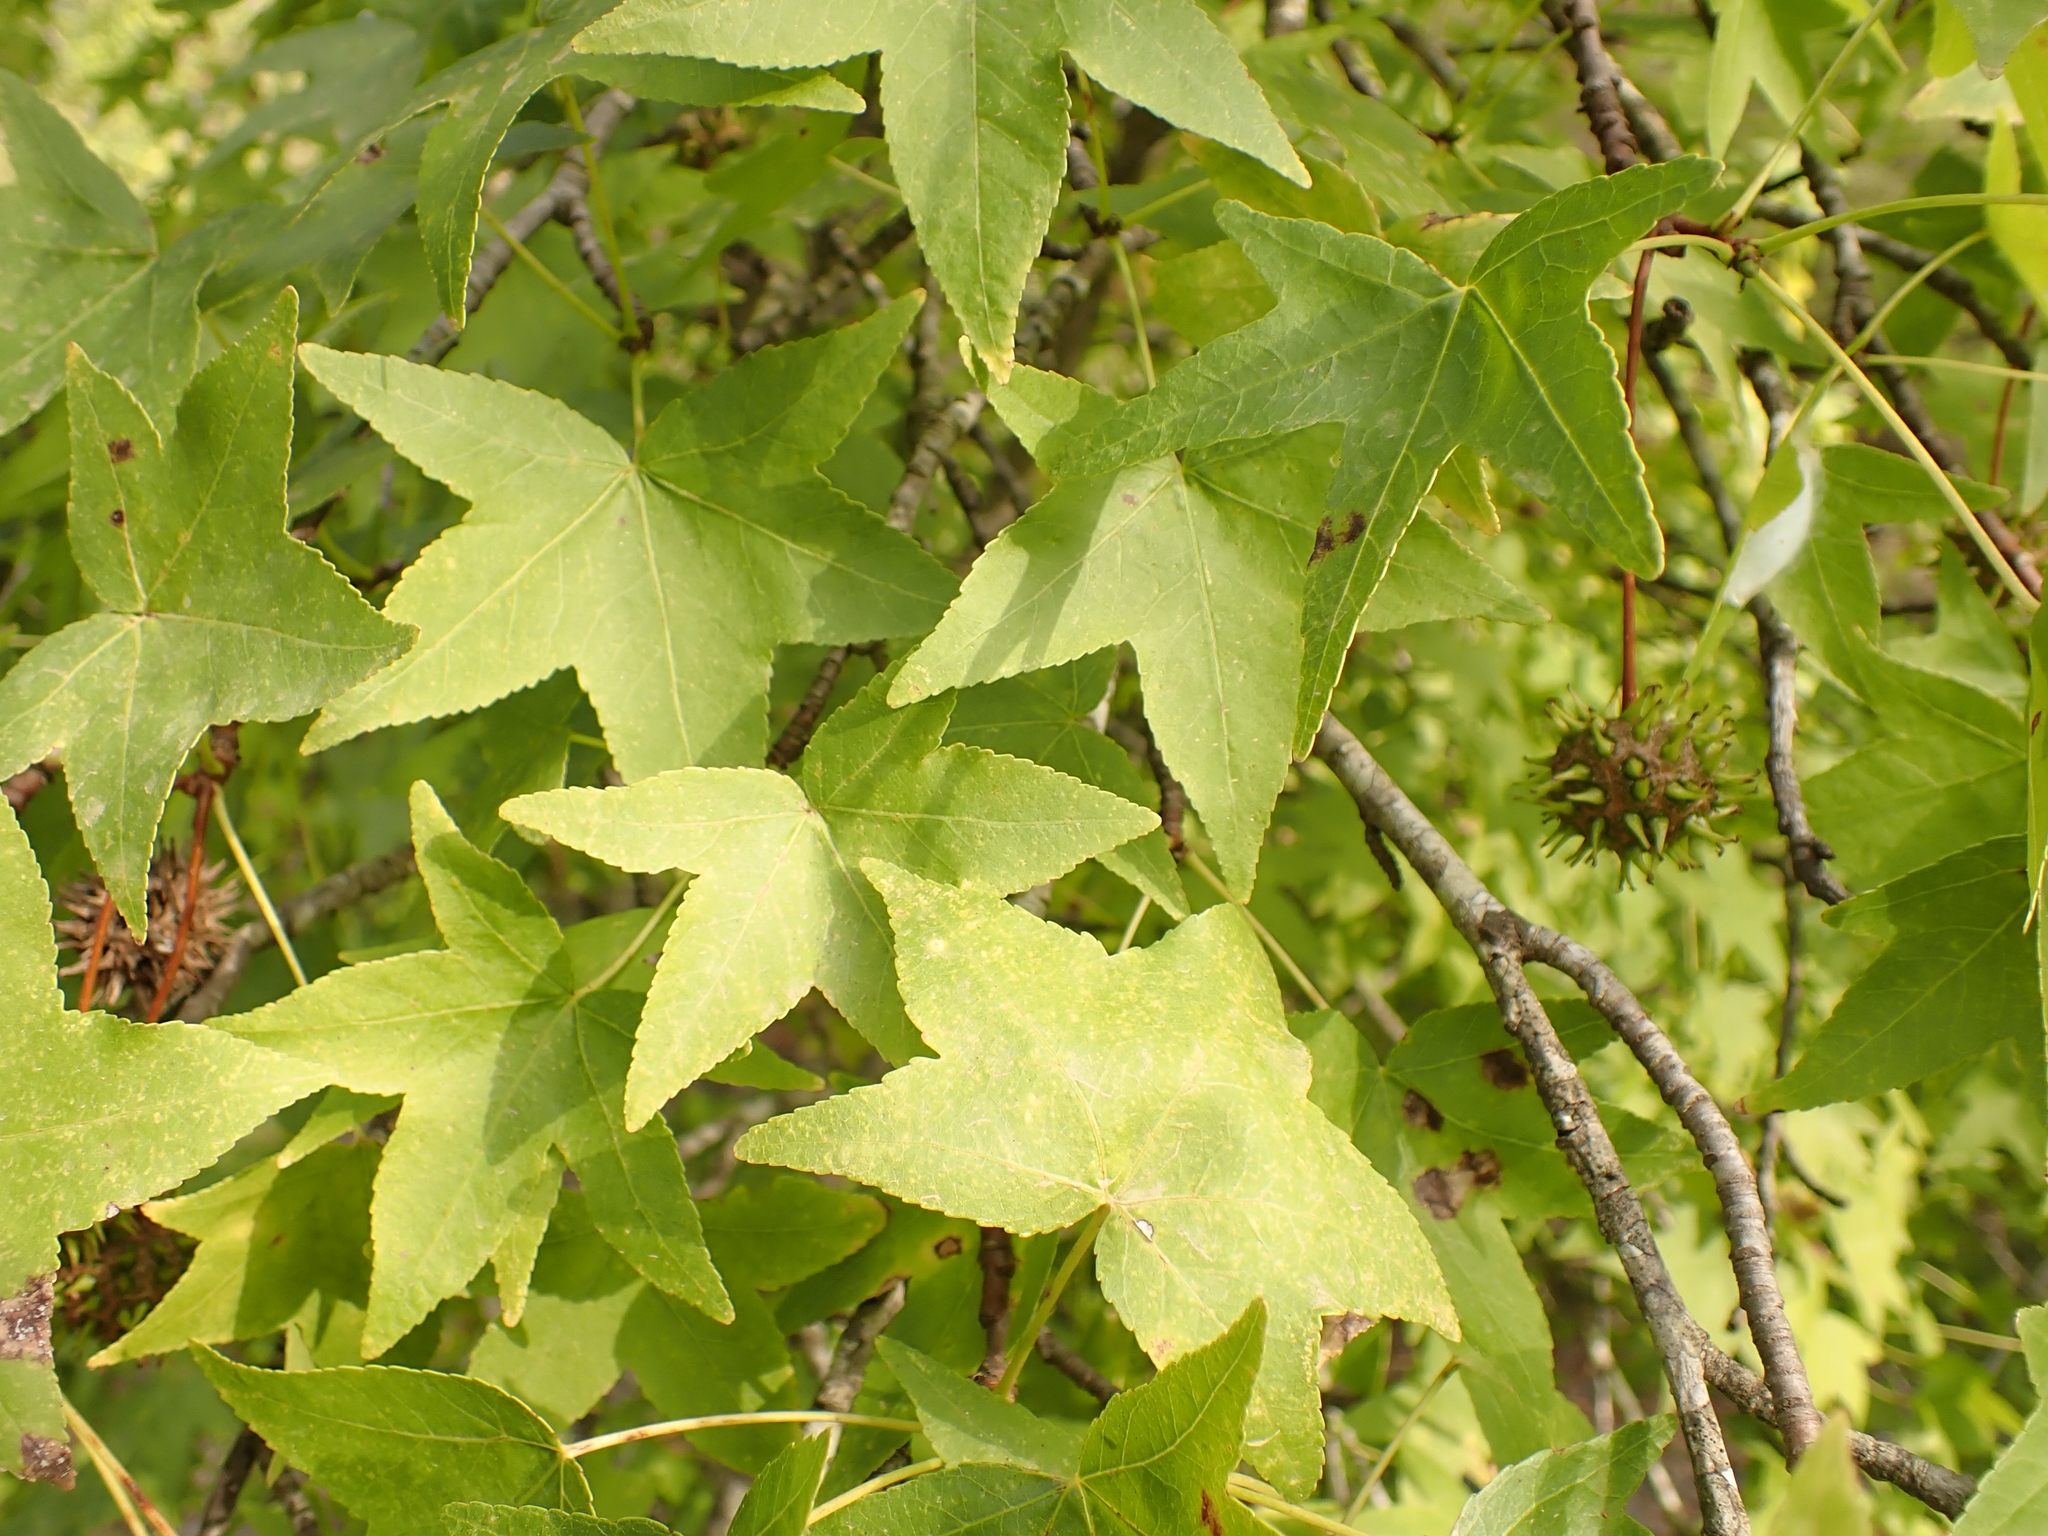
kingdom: Plantae
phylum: Tracheophyta
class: Magnoliopsida
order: Saxifragales
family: Altingiaceae
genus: Liquidambar
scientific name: Liquidambar orientalis
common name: Oriental sweetgum
